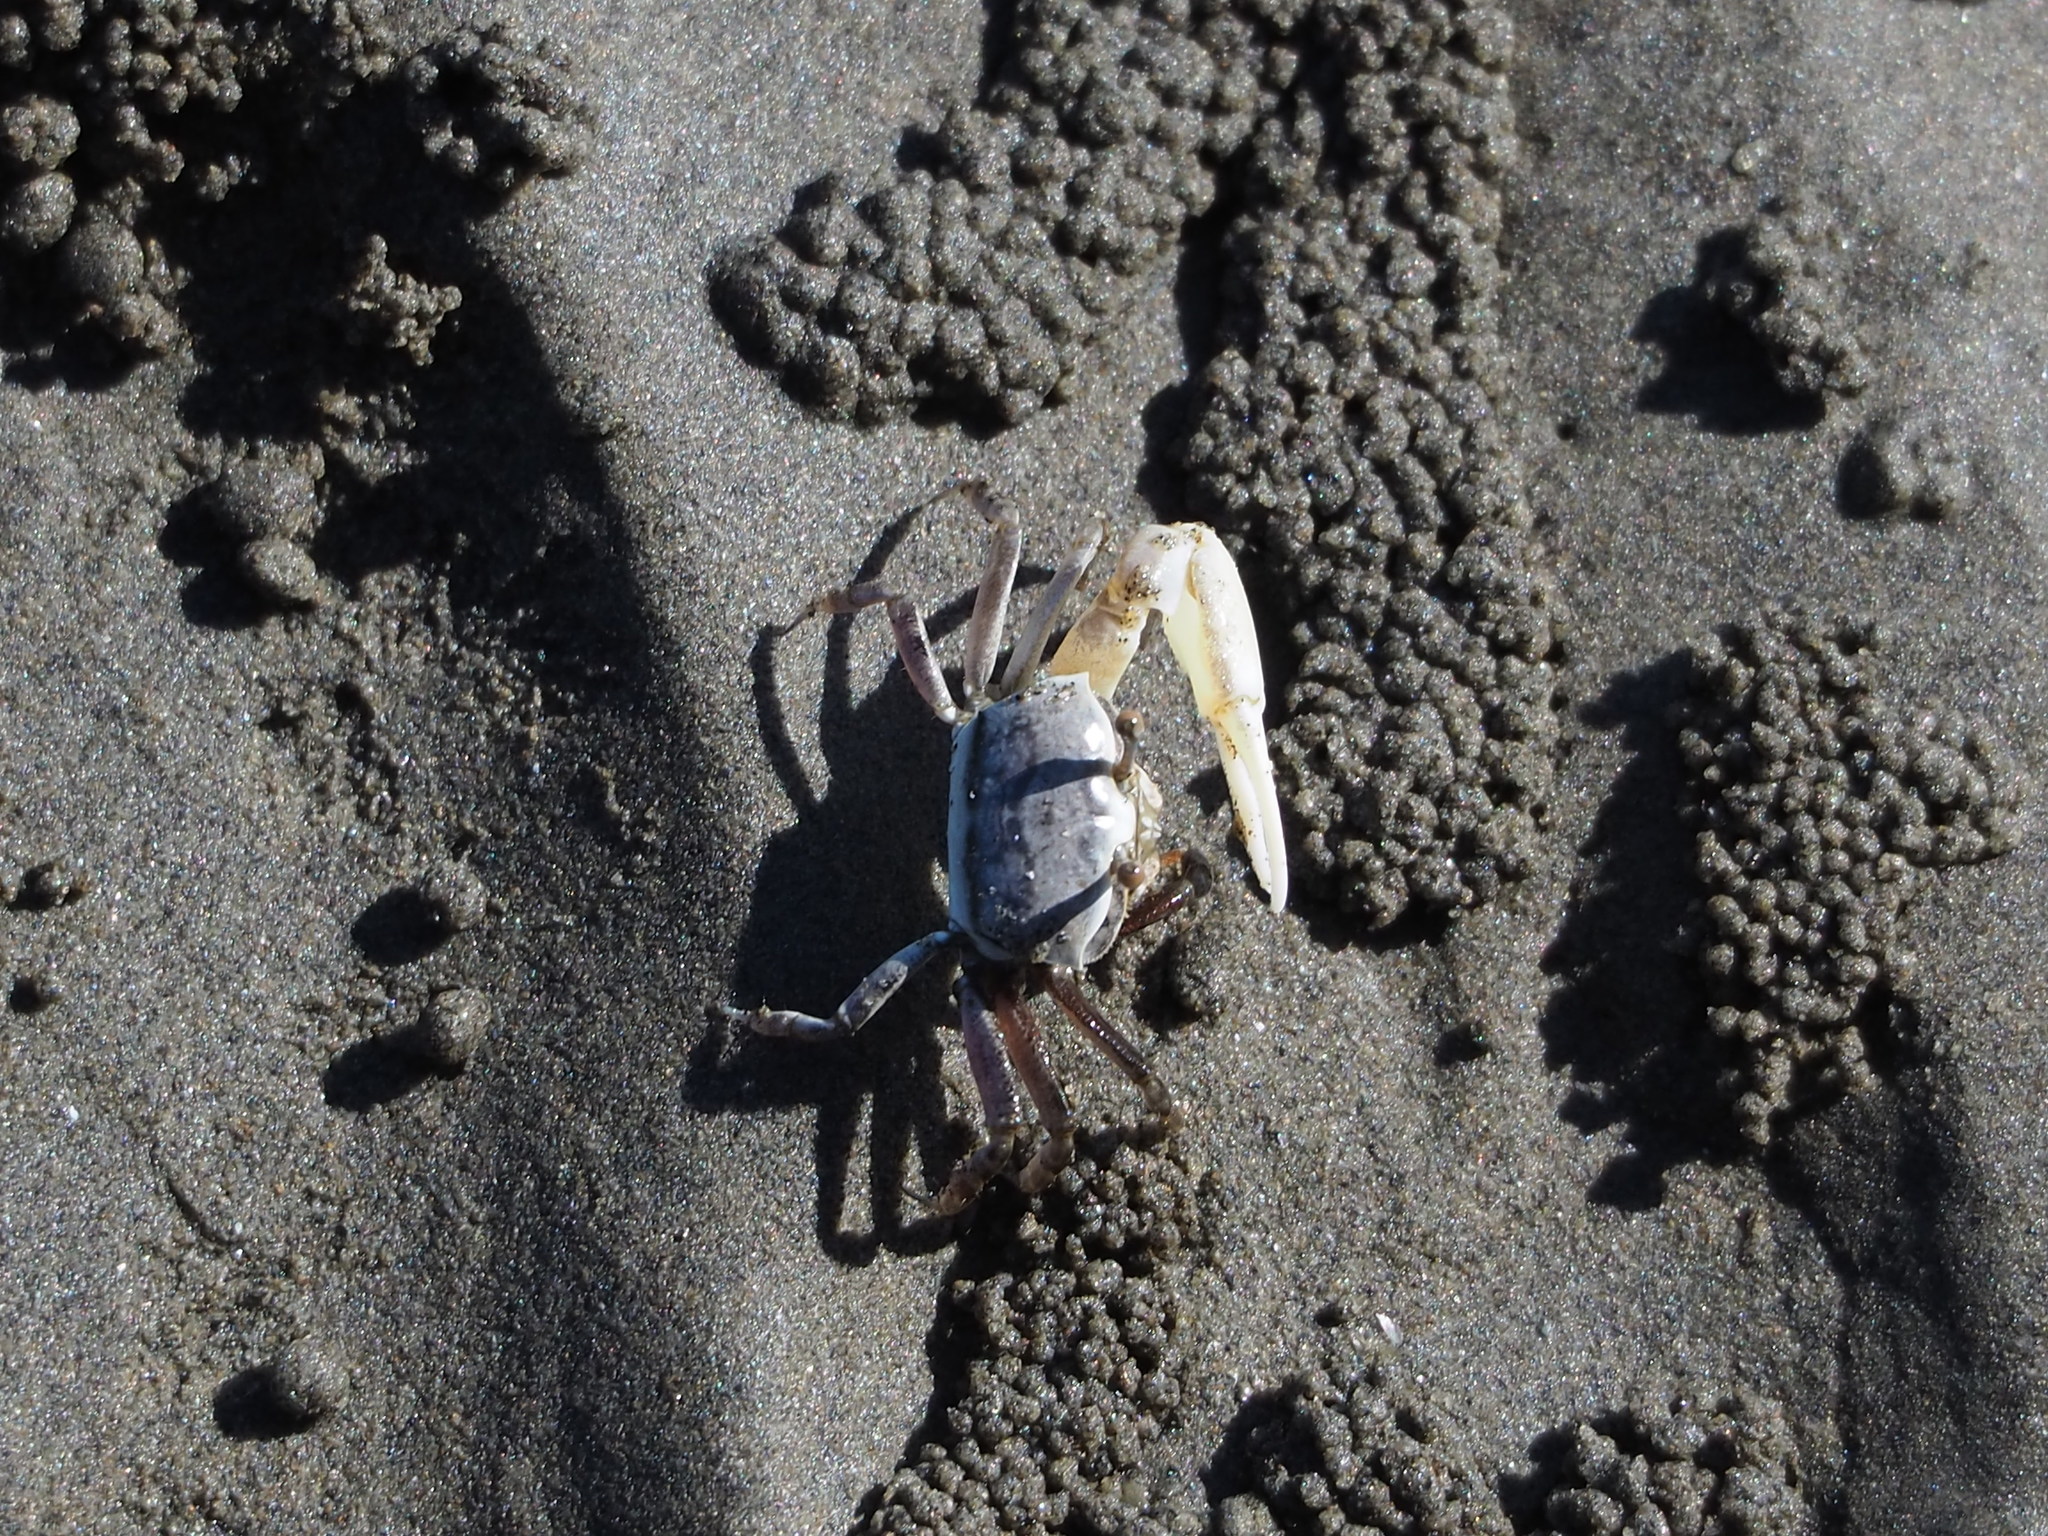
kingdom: Animalia
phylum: Arthropoda
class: Malacostraca
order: Decapoda
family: Ocypodidae
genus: Austruca
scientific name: Austruca lactea
